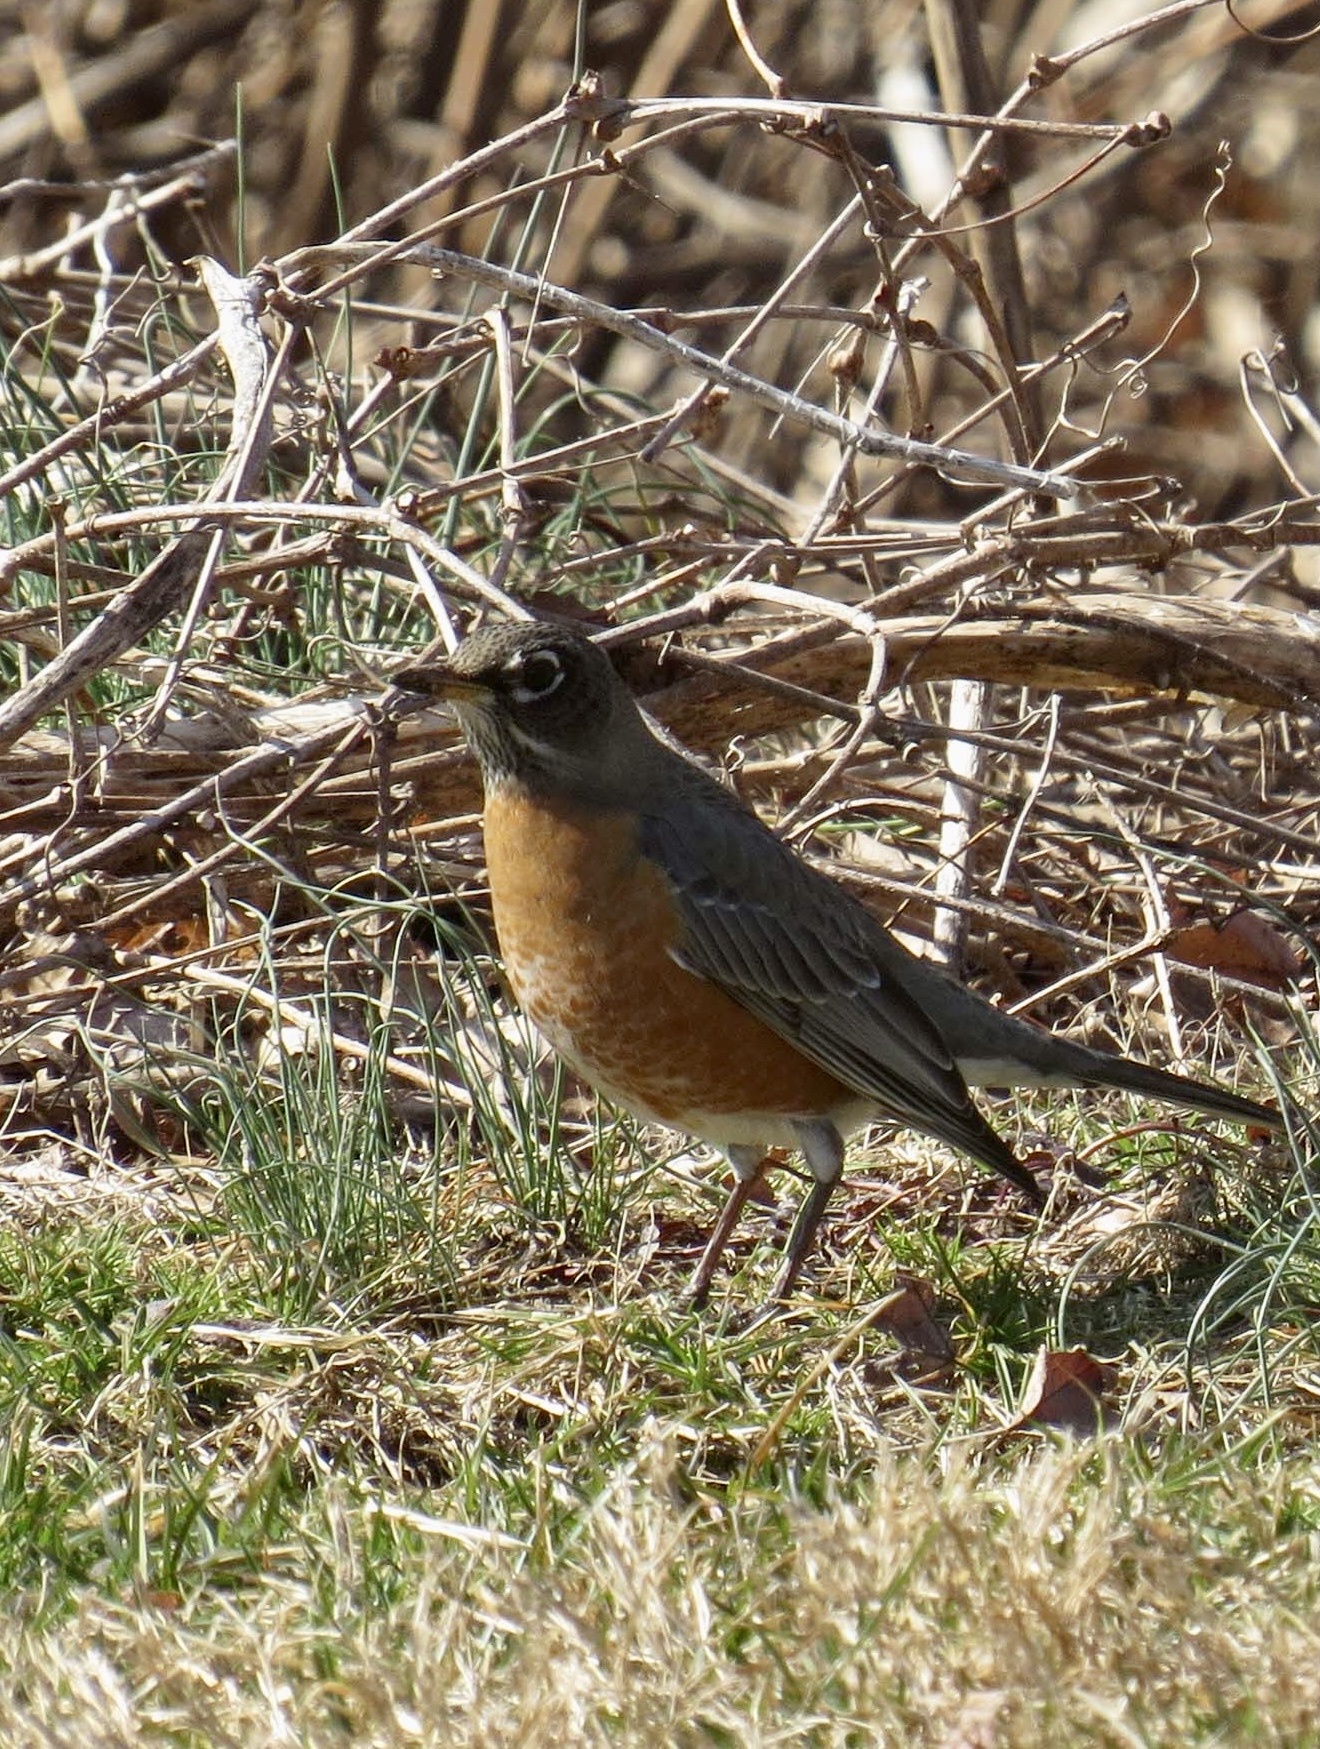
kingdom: Animalia
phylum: Chordata
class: Aves
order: Passeriformes
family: Turdidae
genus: Turdus
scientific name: Turdus migratorius
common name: American robin
